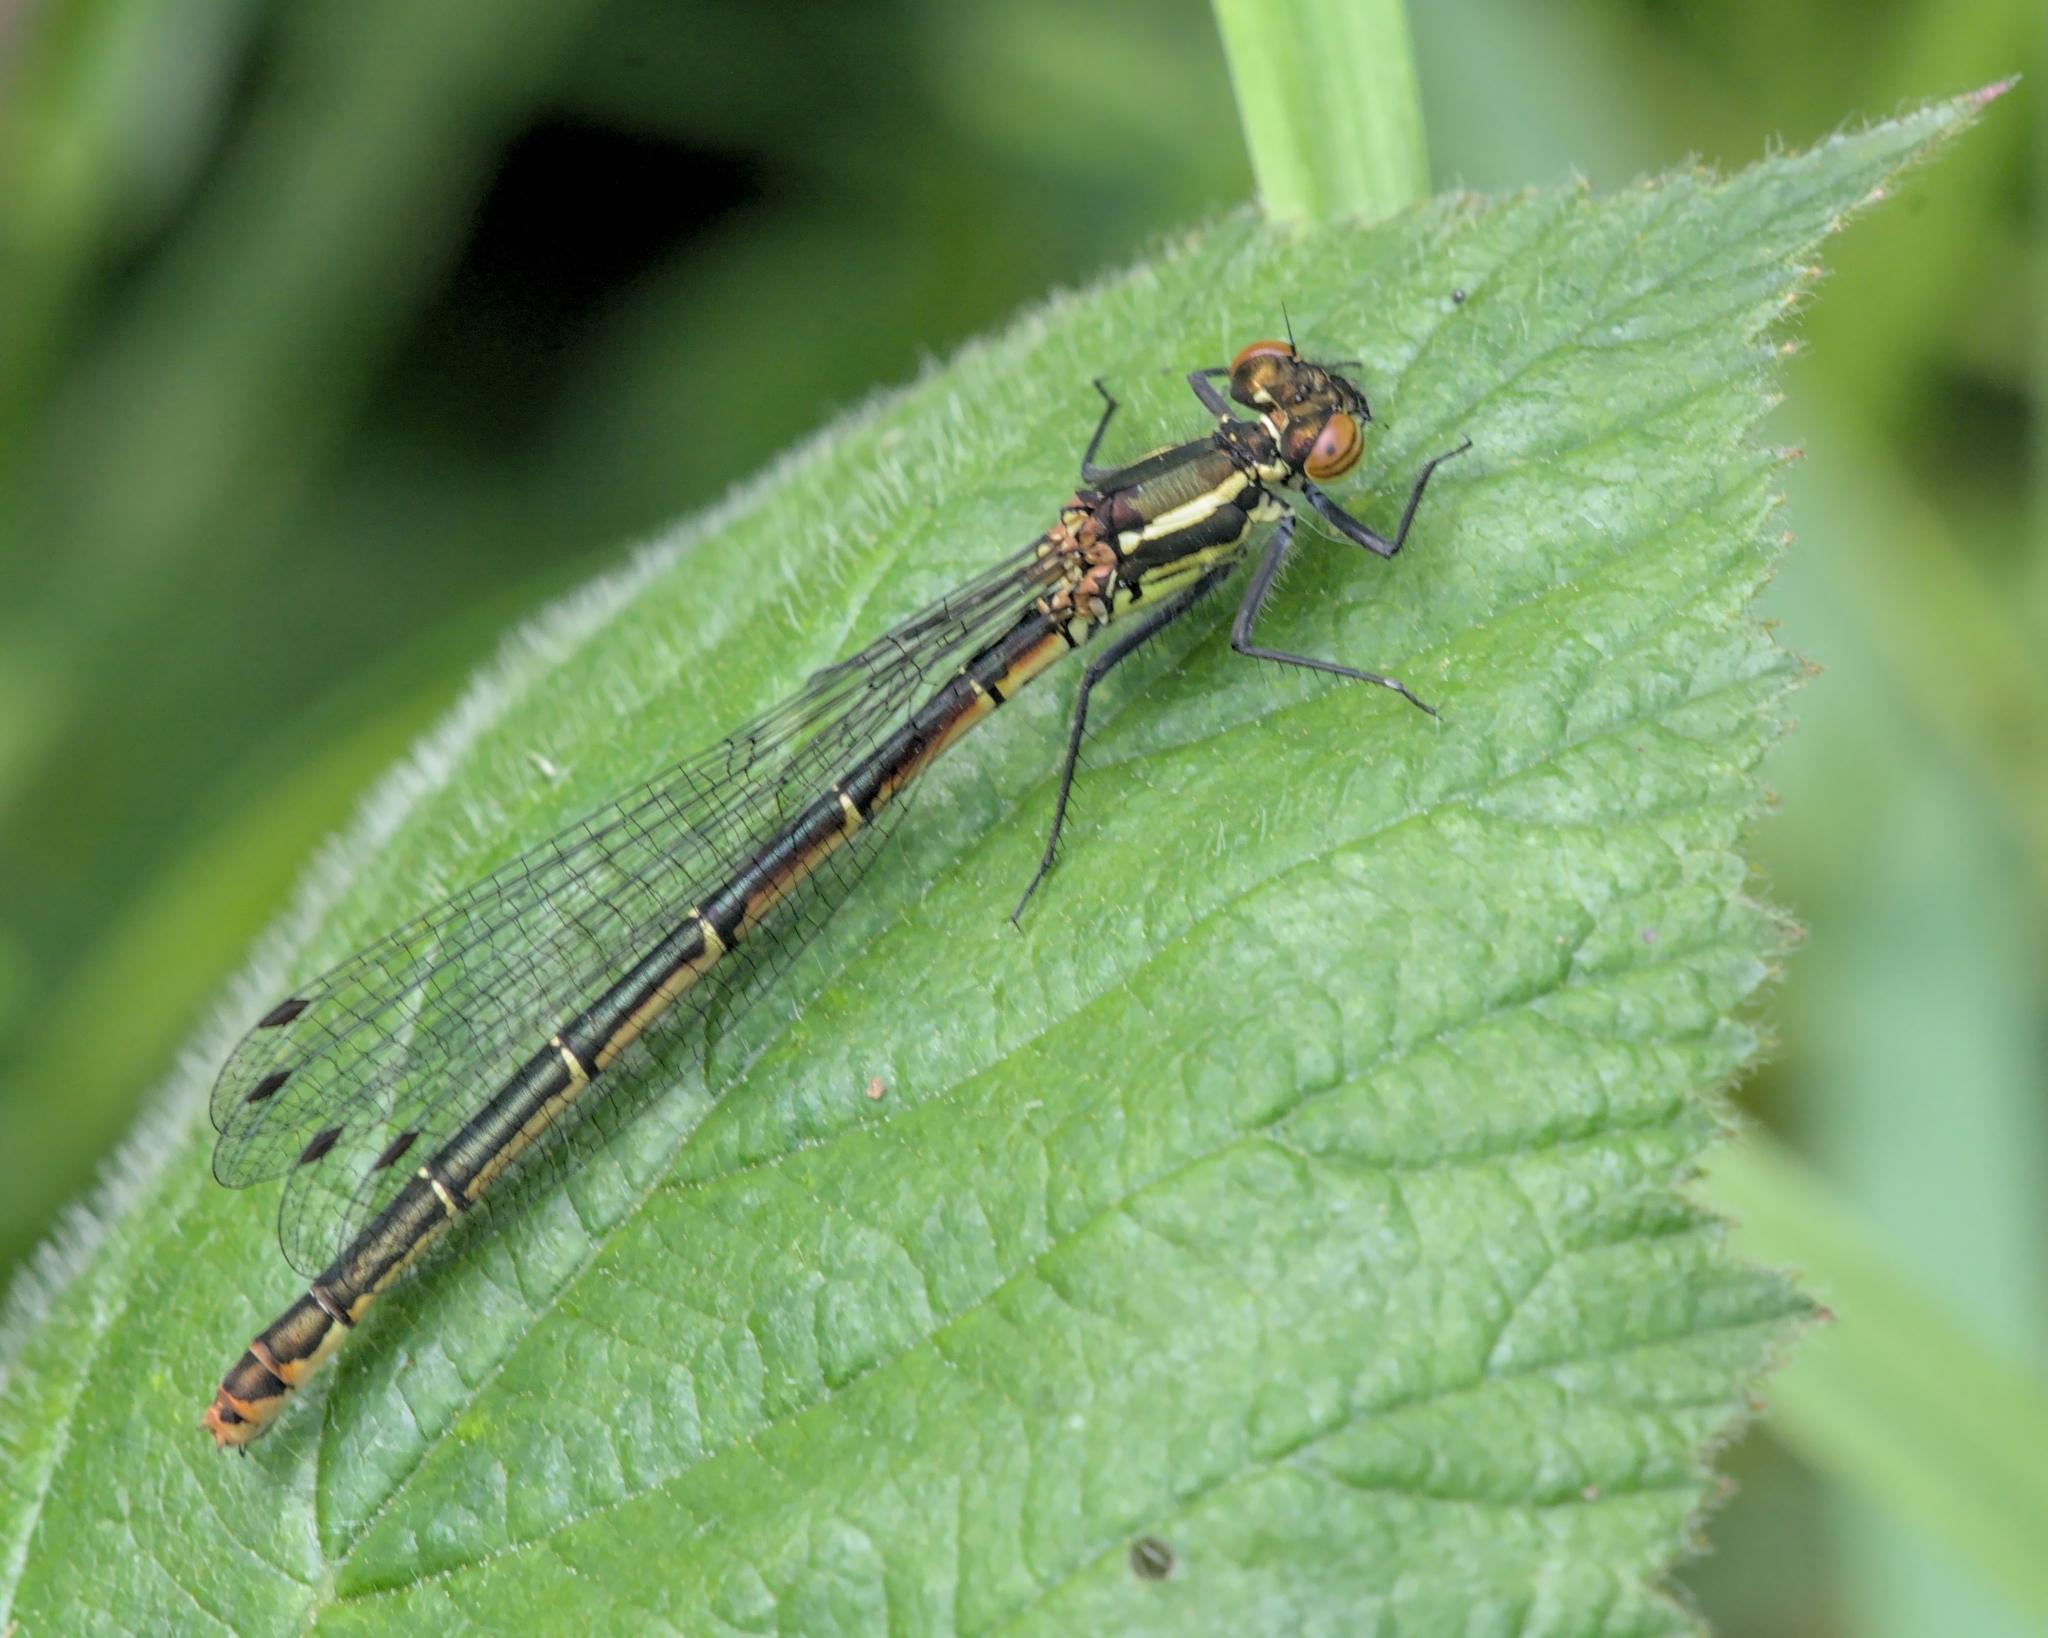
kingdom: Animalia
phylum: Arthropoda
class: Insecta
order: Odonata
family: Coenagrionidae
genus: Pyrrhosoma
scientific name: Pyrrhosoma nymphula
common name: Large red damsel
